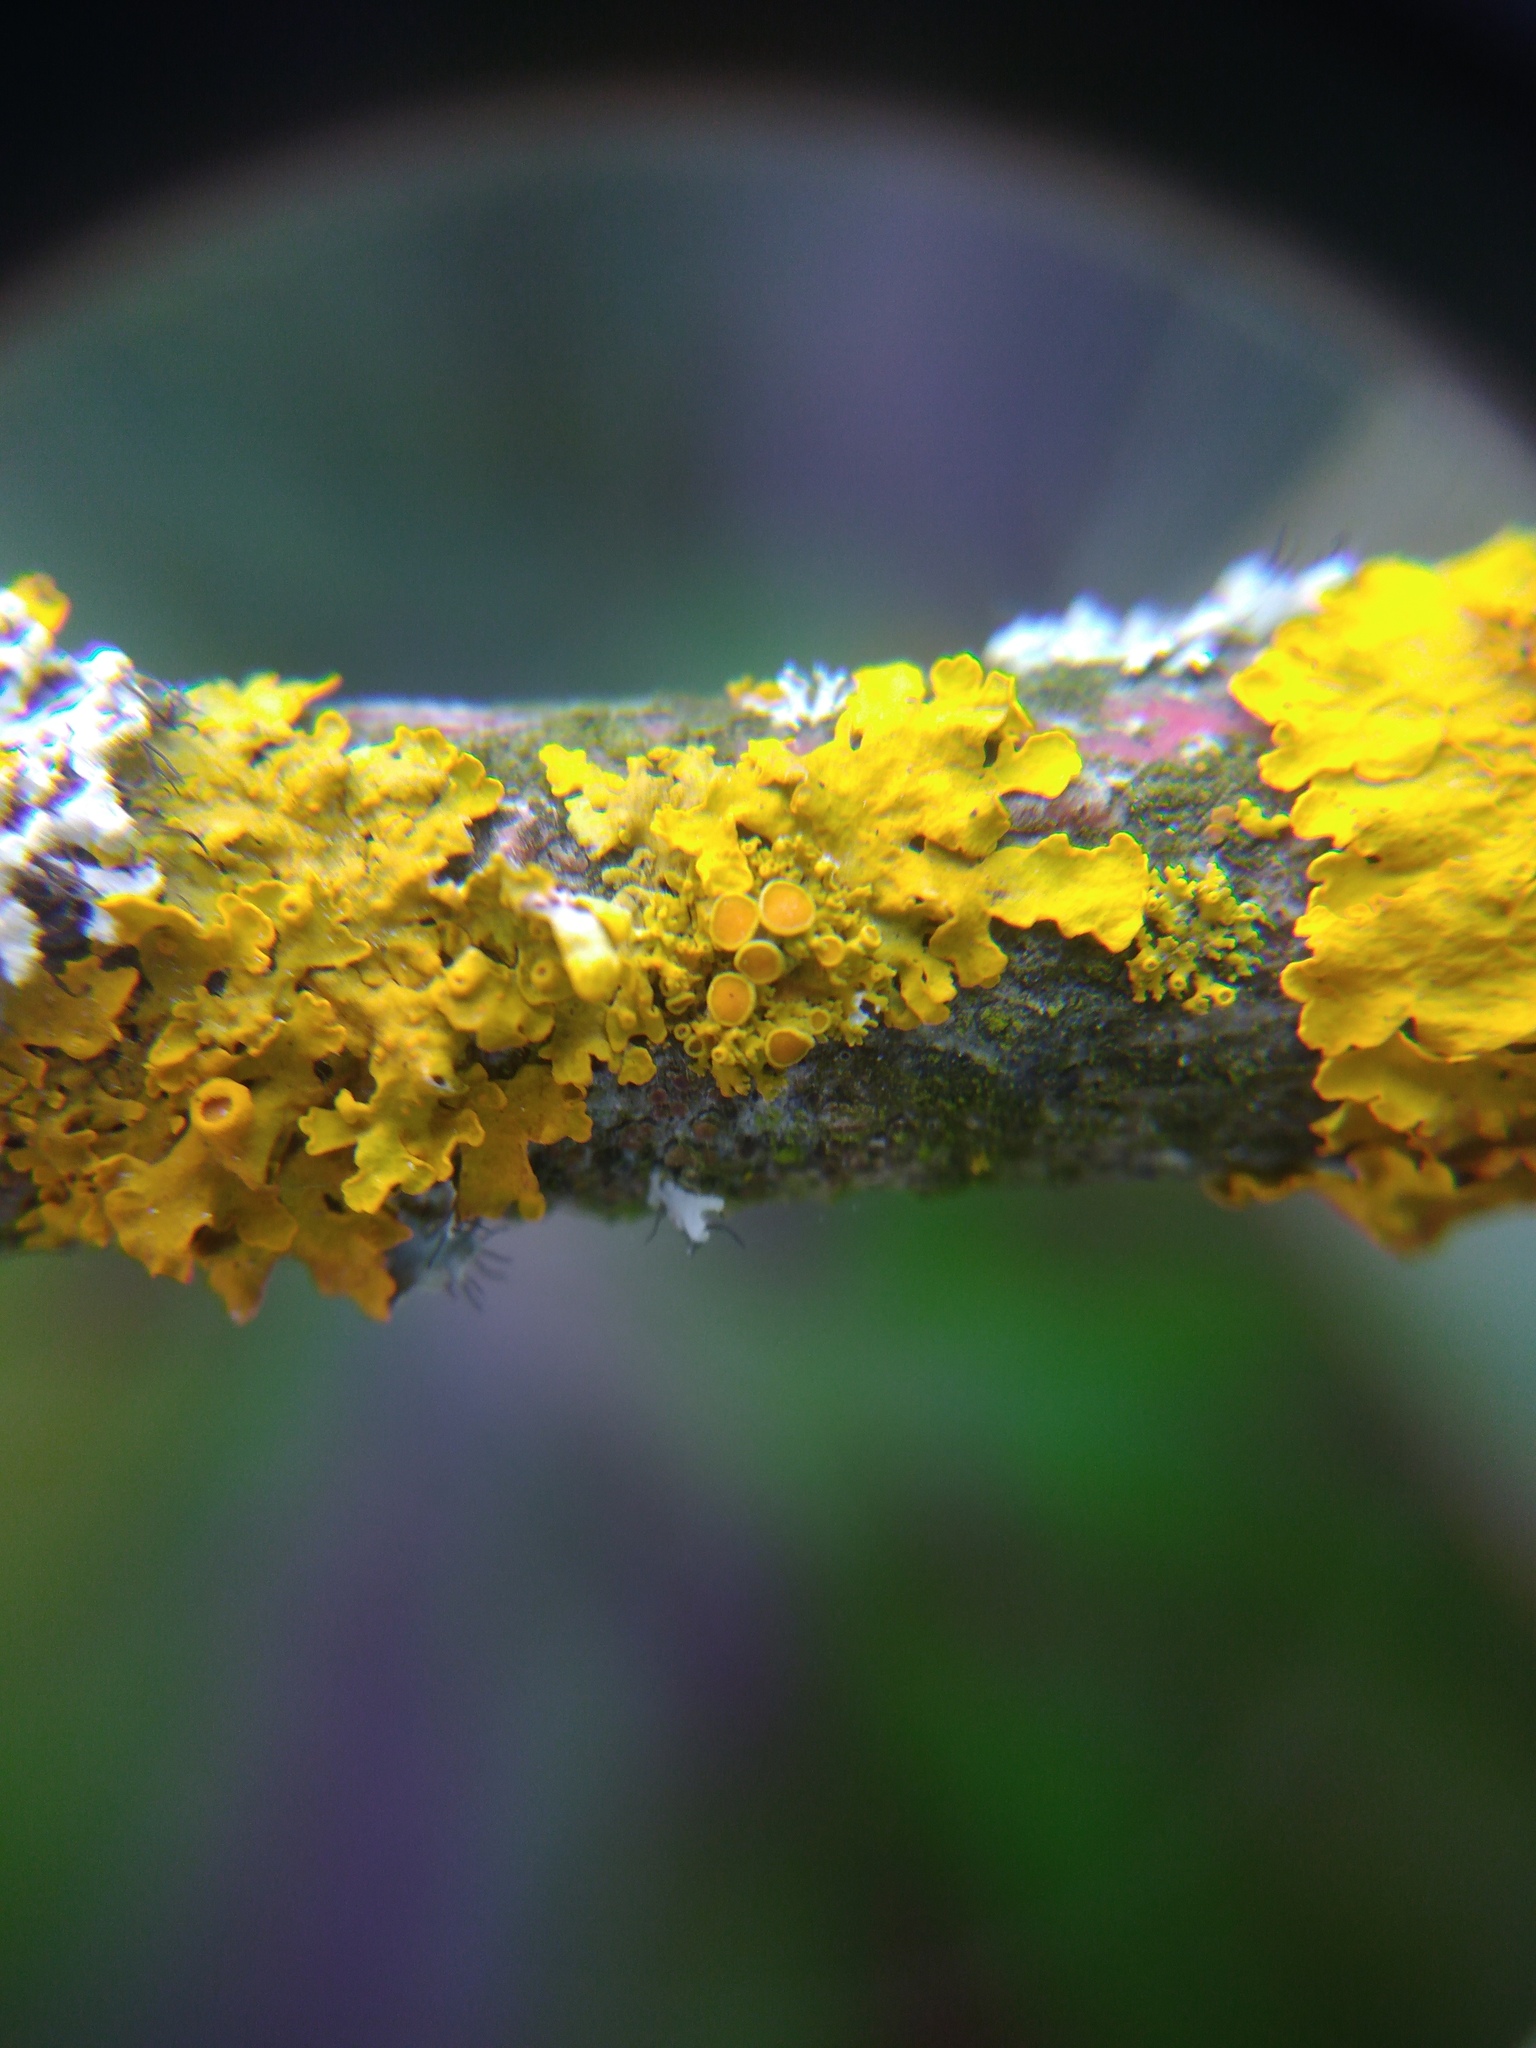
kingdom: Fungi
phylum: Ascomycota
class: Lecanoromycetes
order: Teloschistales
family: Teloschistaceae
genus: Polycauliona
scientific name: Polycauliona polycarpa
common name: Pin-cushion sunburst lichen
